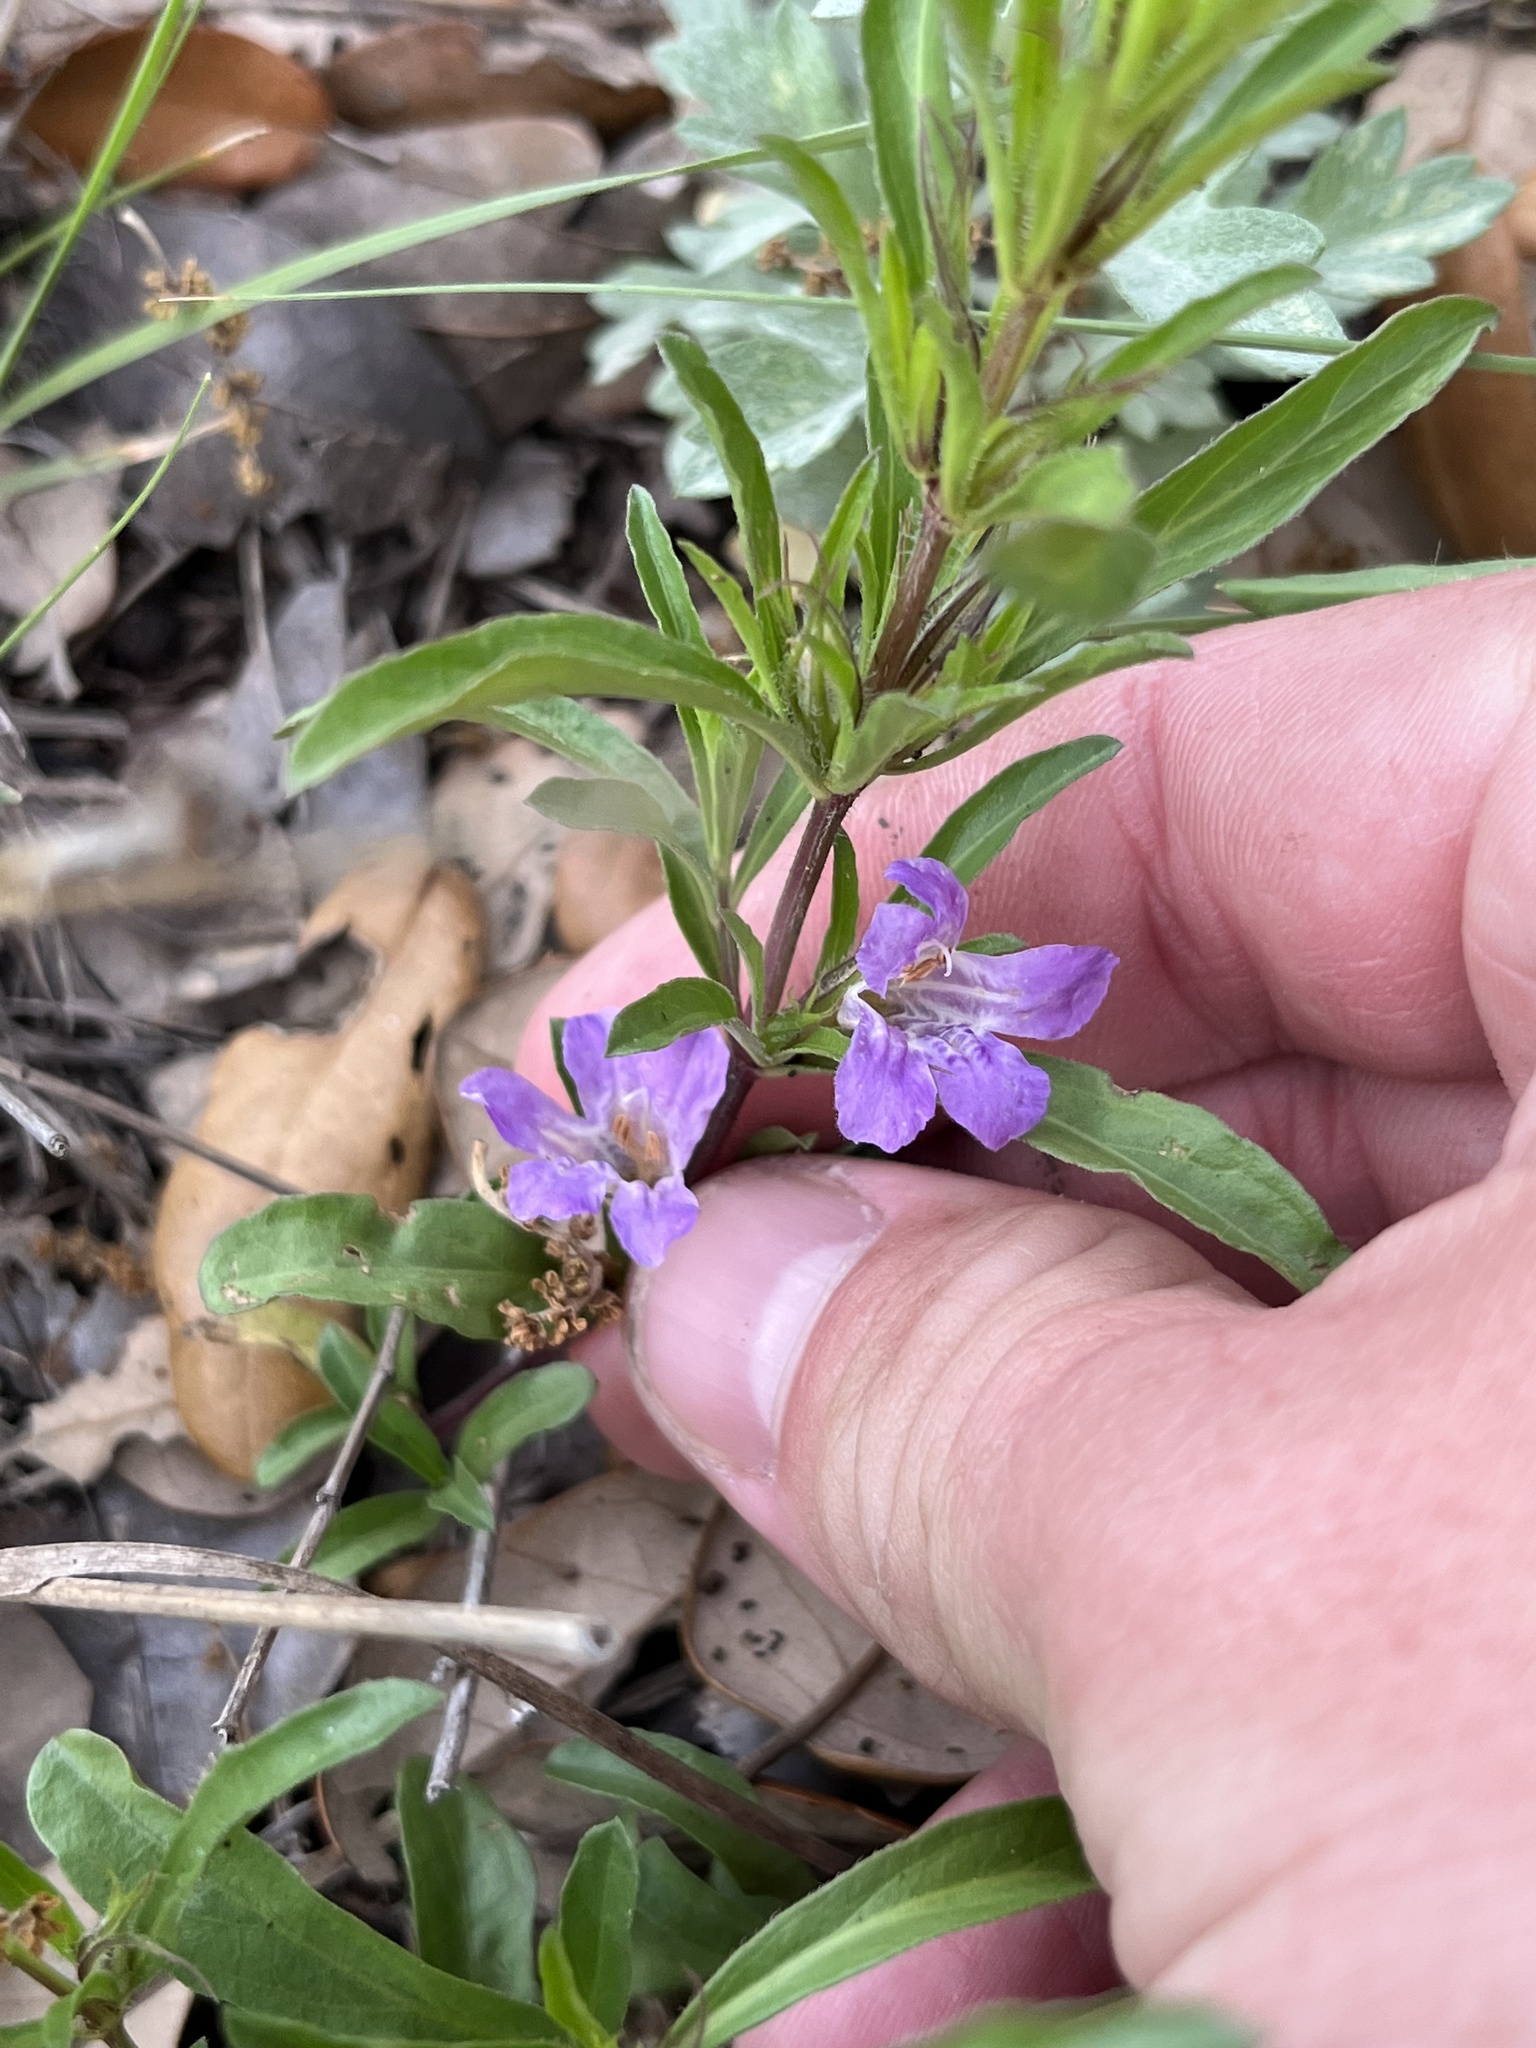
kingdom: Plantae
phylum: Tracheophyta
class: Magnoliopsida
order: Lamiales
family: Acanthaceae
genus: Dyschoriste
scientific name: Dyschoriste linearis
